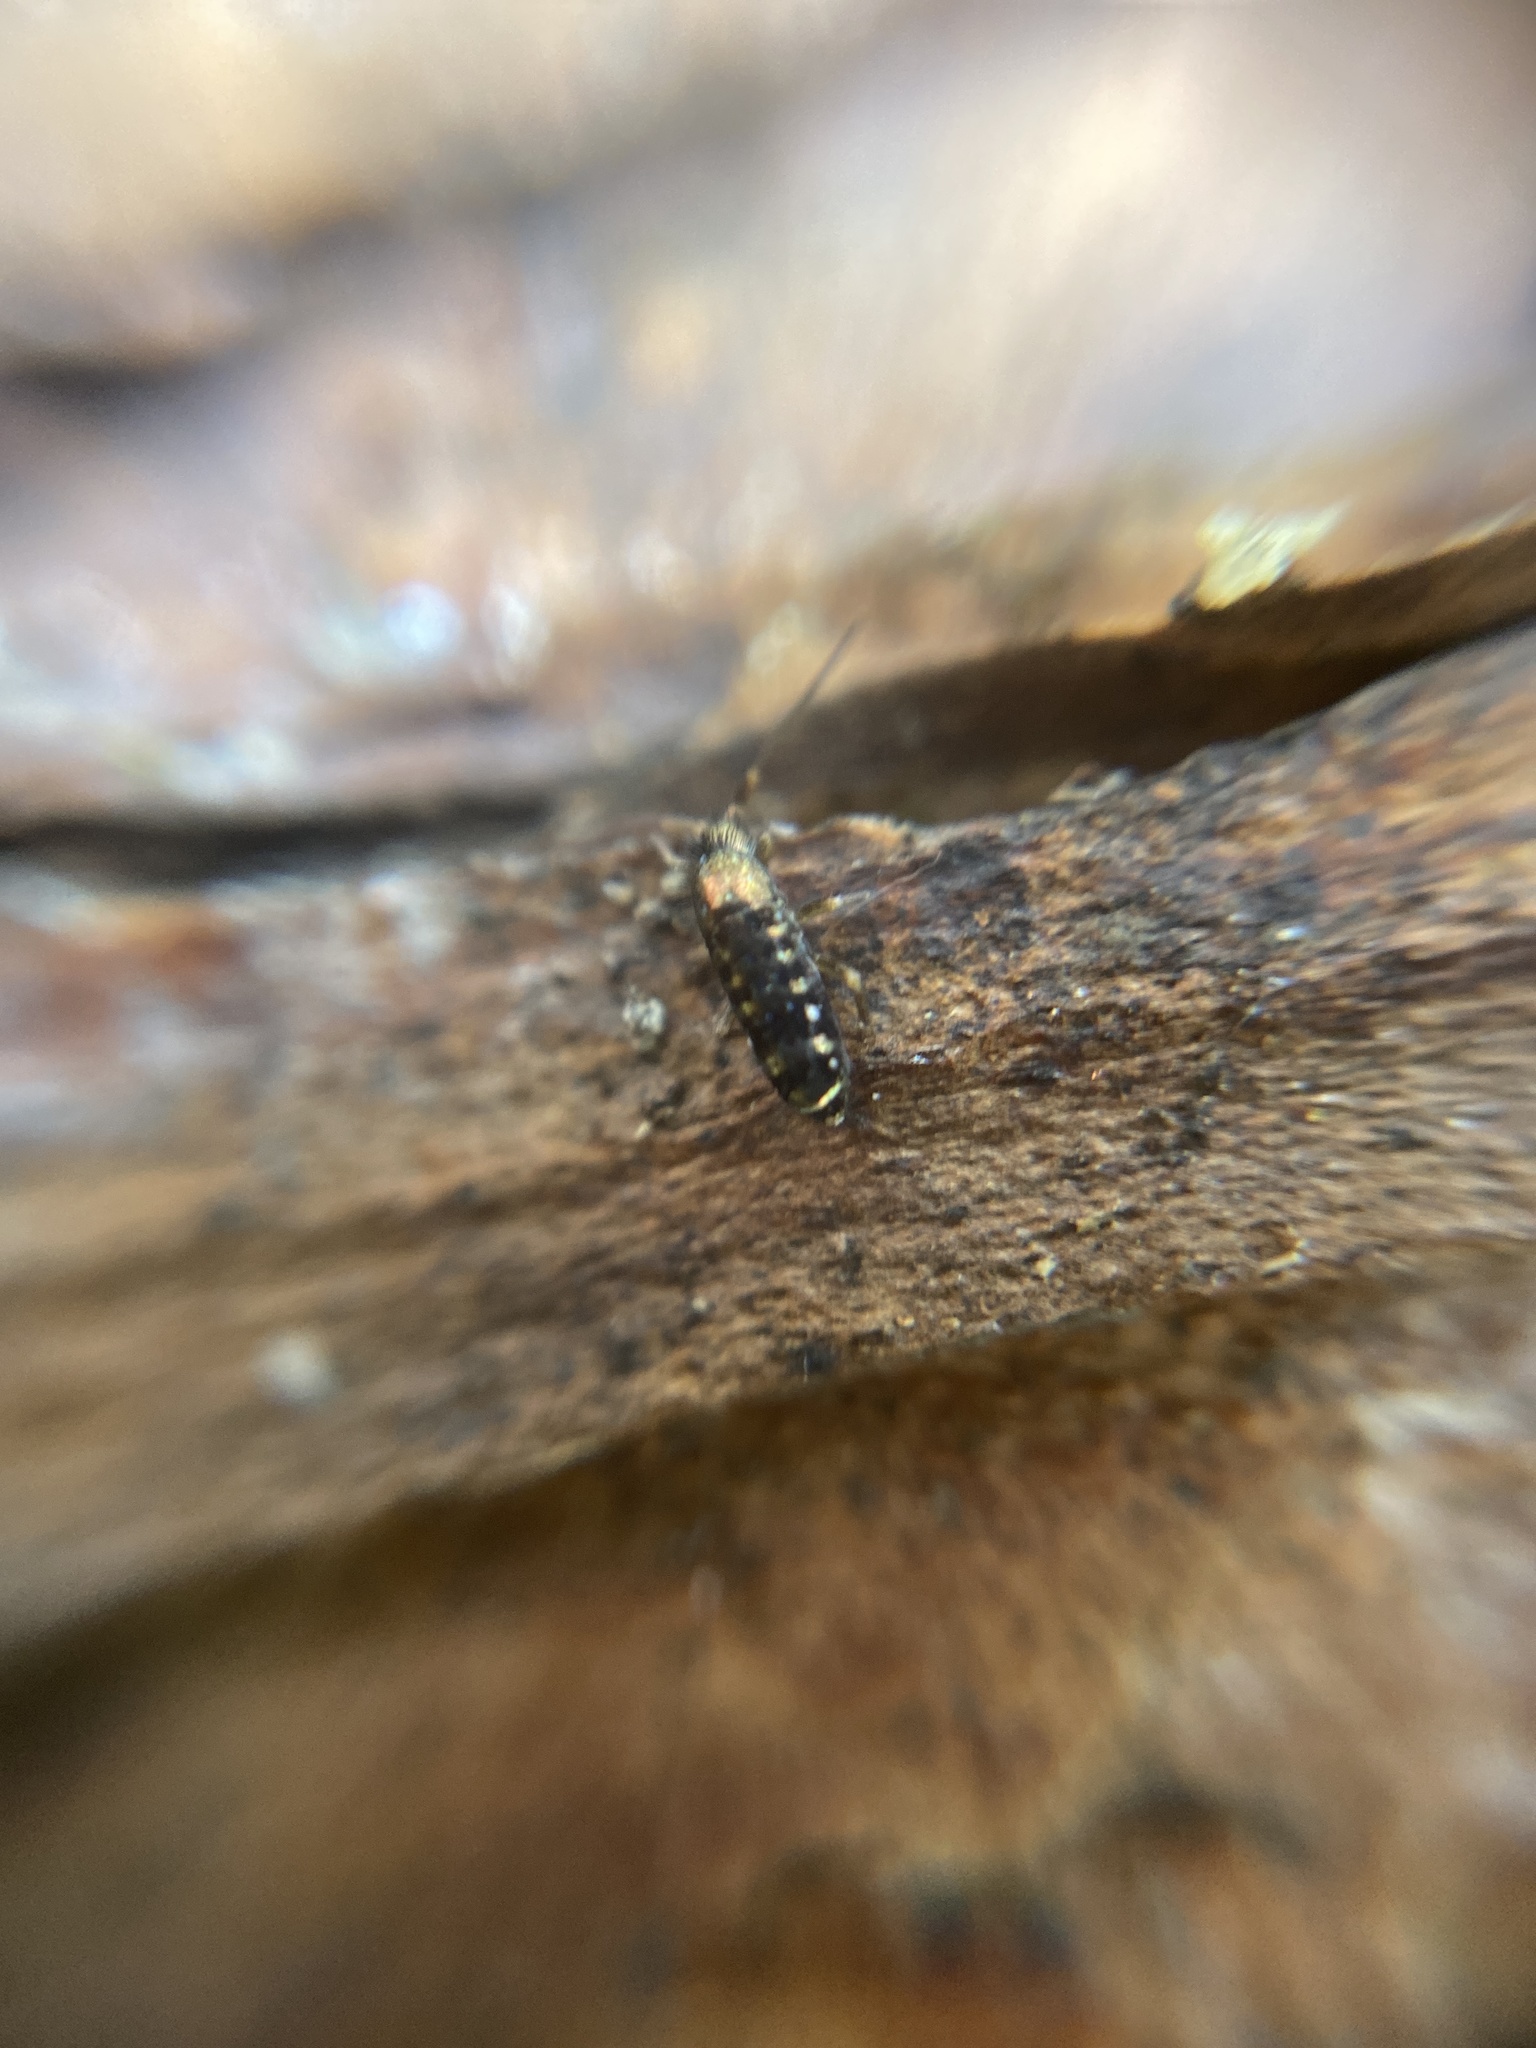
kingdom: Animalia
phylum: Arthropoda
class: Collembola
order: Entomobryomorpha
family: Tomoceridae
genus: Tomocerus
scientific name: Tomocerus vulgaris
